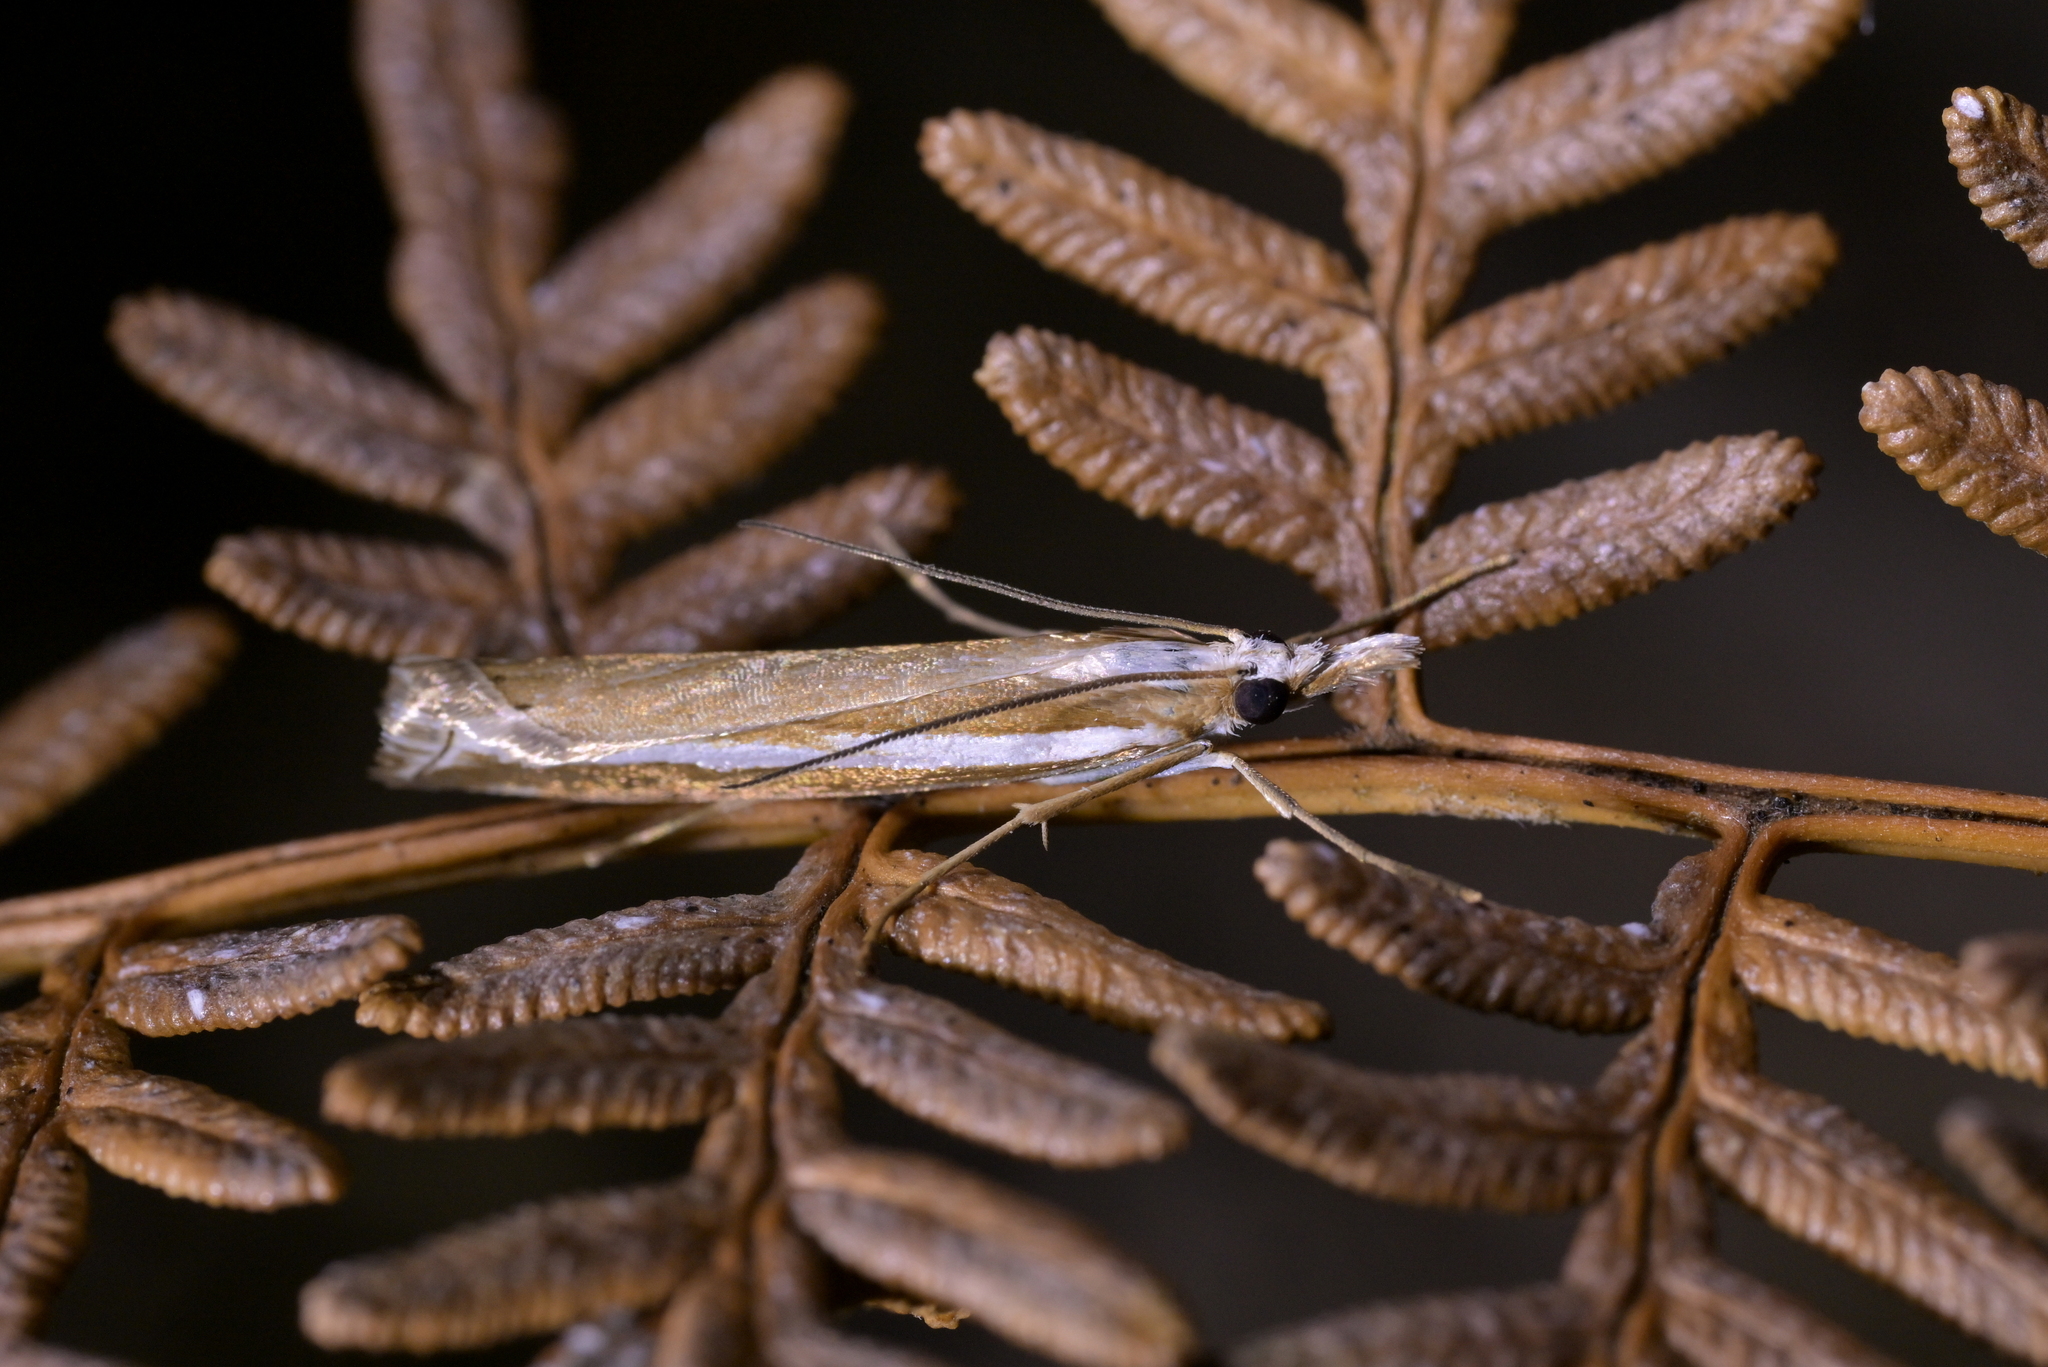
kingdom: Animalia
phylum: Arthropoda
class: Insecta
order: Lepidoptera
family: Crambidae
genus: Orocrambus
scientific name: Orocrambus vittellus
